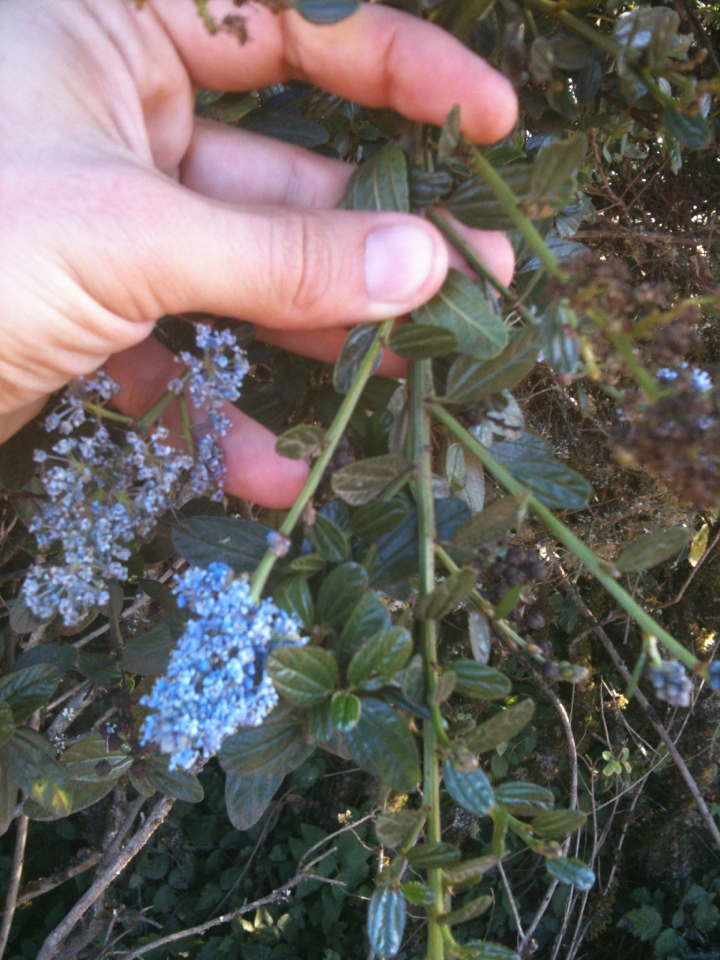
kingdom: Plantae
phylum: Tracheophyta
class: Magnoliopsida
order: Rosales
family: Rhamnaceae
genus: Ceanothus
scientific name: Ceanothus thyrsiflorus
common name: California-lilac
